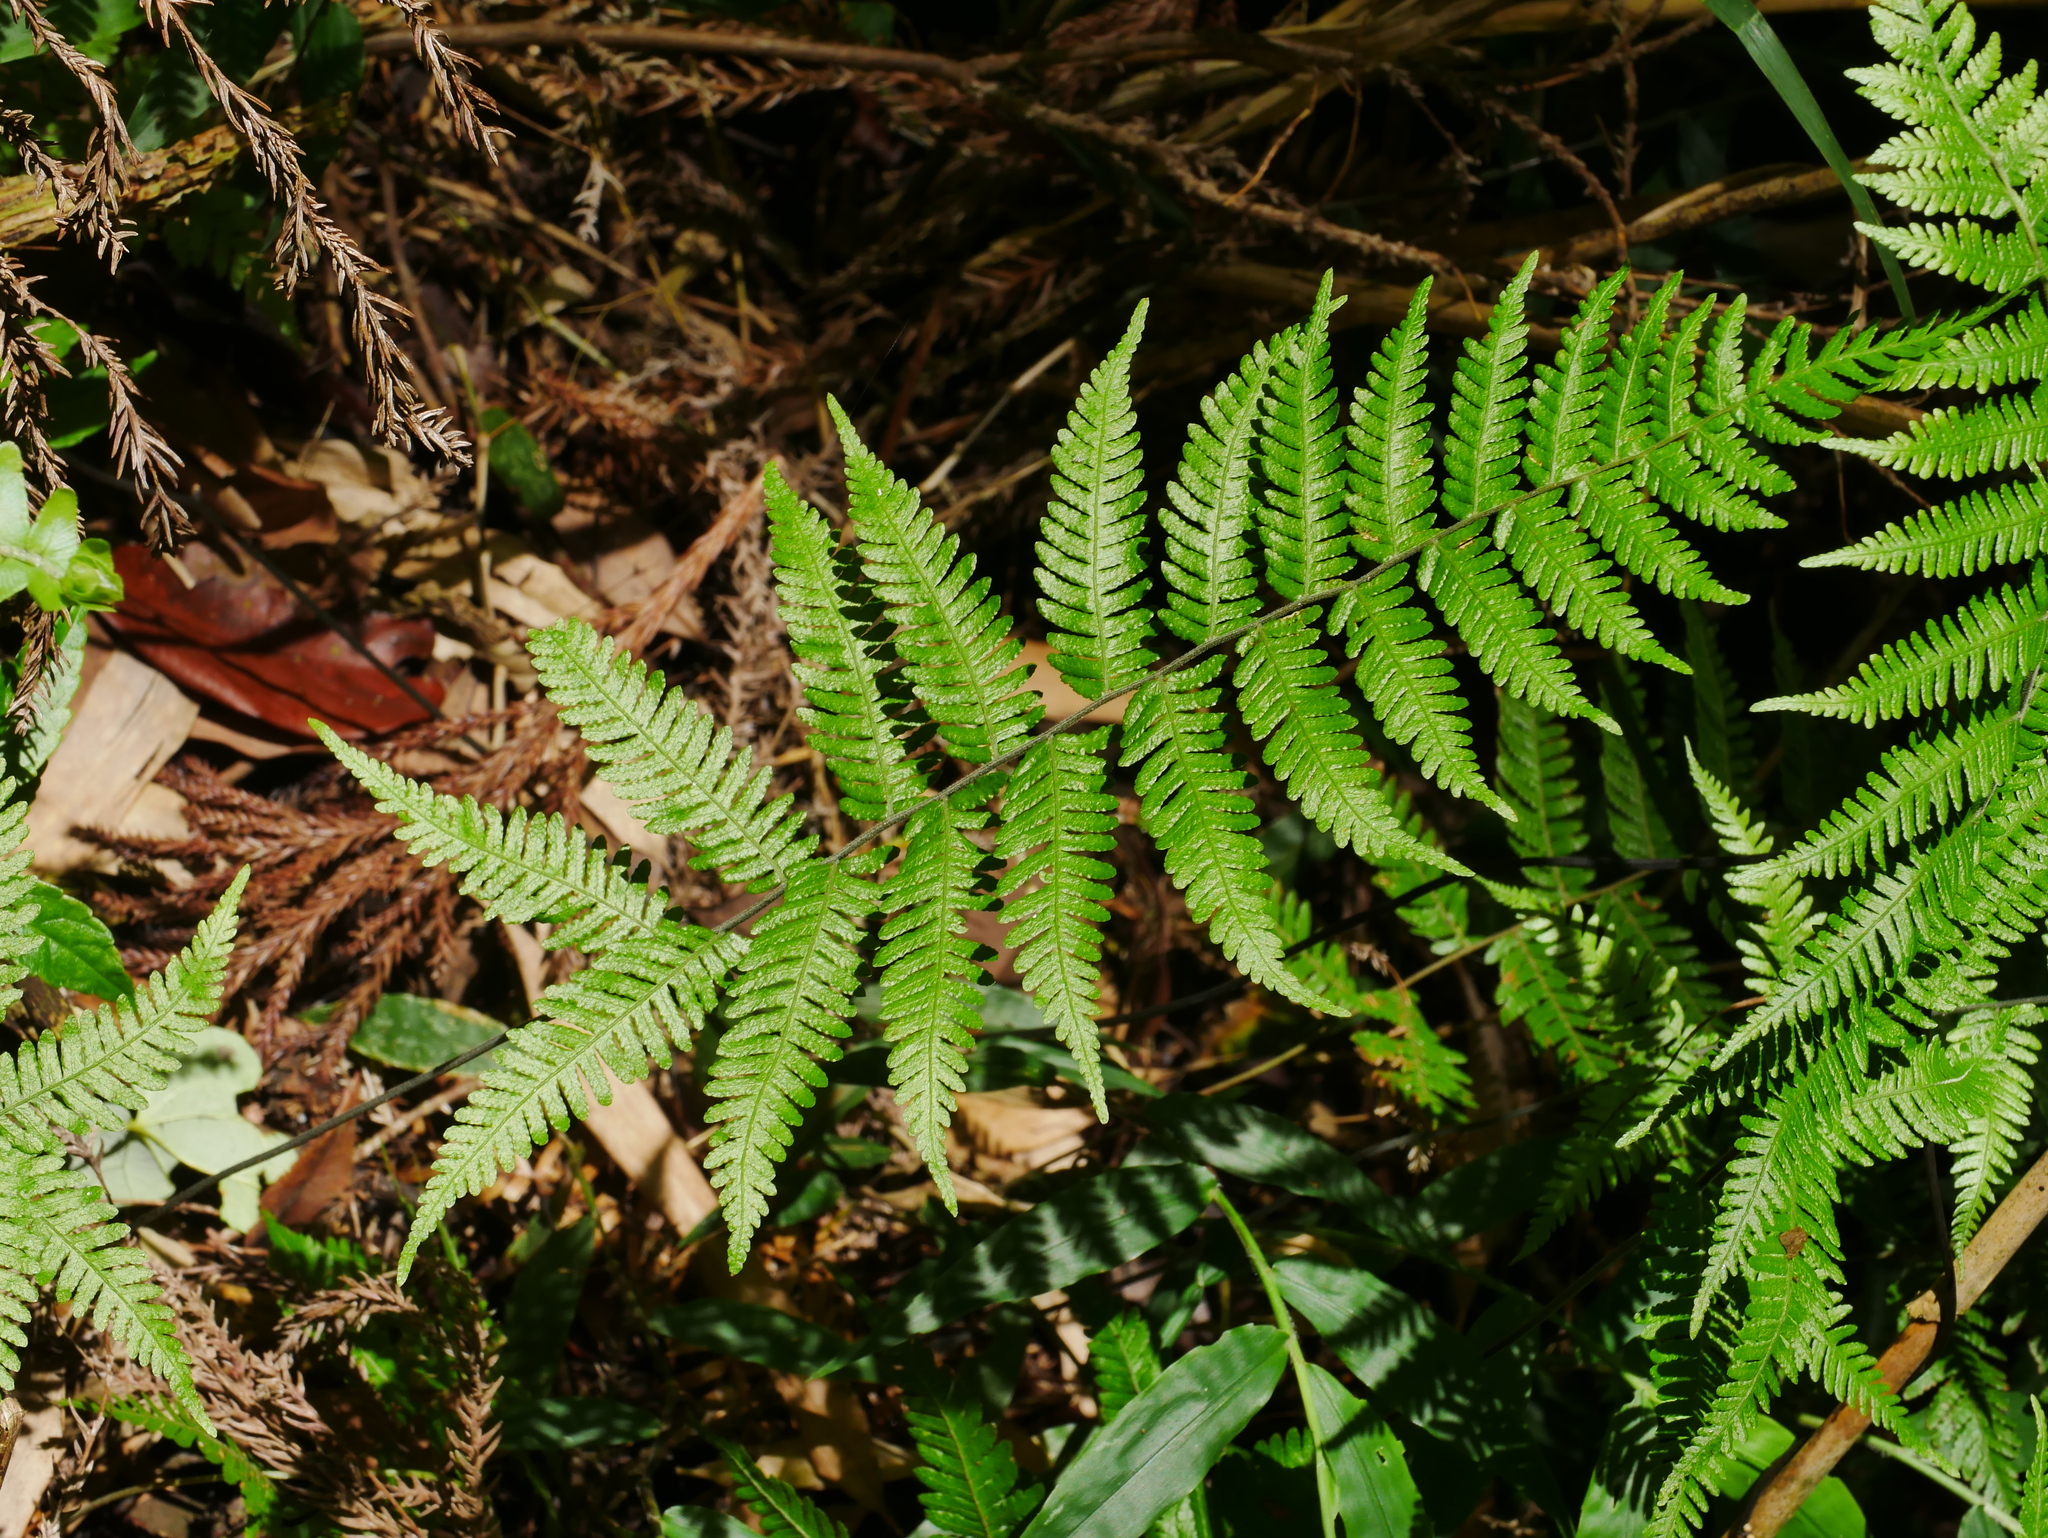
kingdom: Plantae
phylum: Tracheophyta
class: Polypodiopsida
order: Polypodiales
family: Thelypteridaceae
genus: Amauropelta
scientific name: Amauropelta glanduligera
